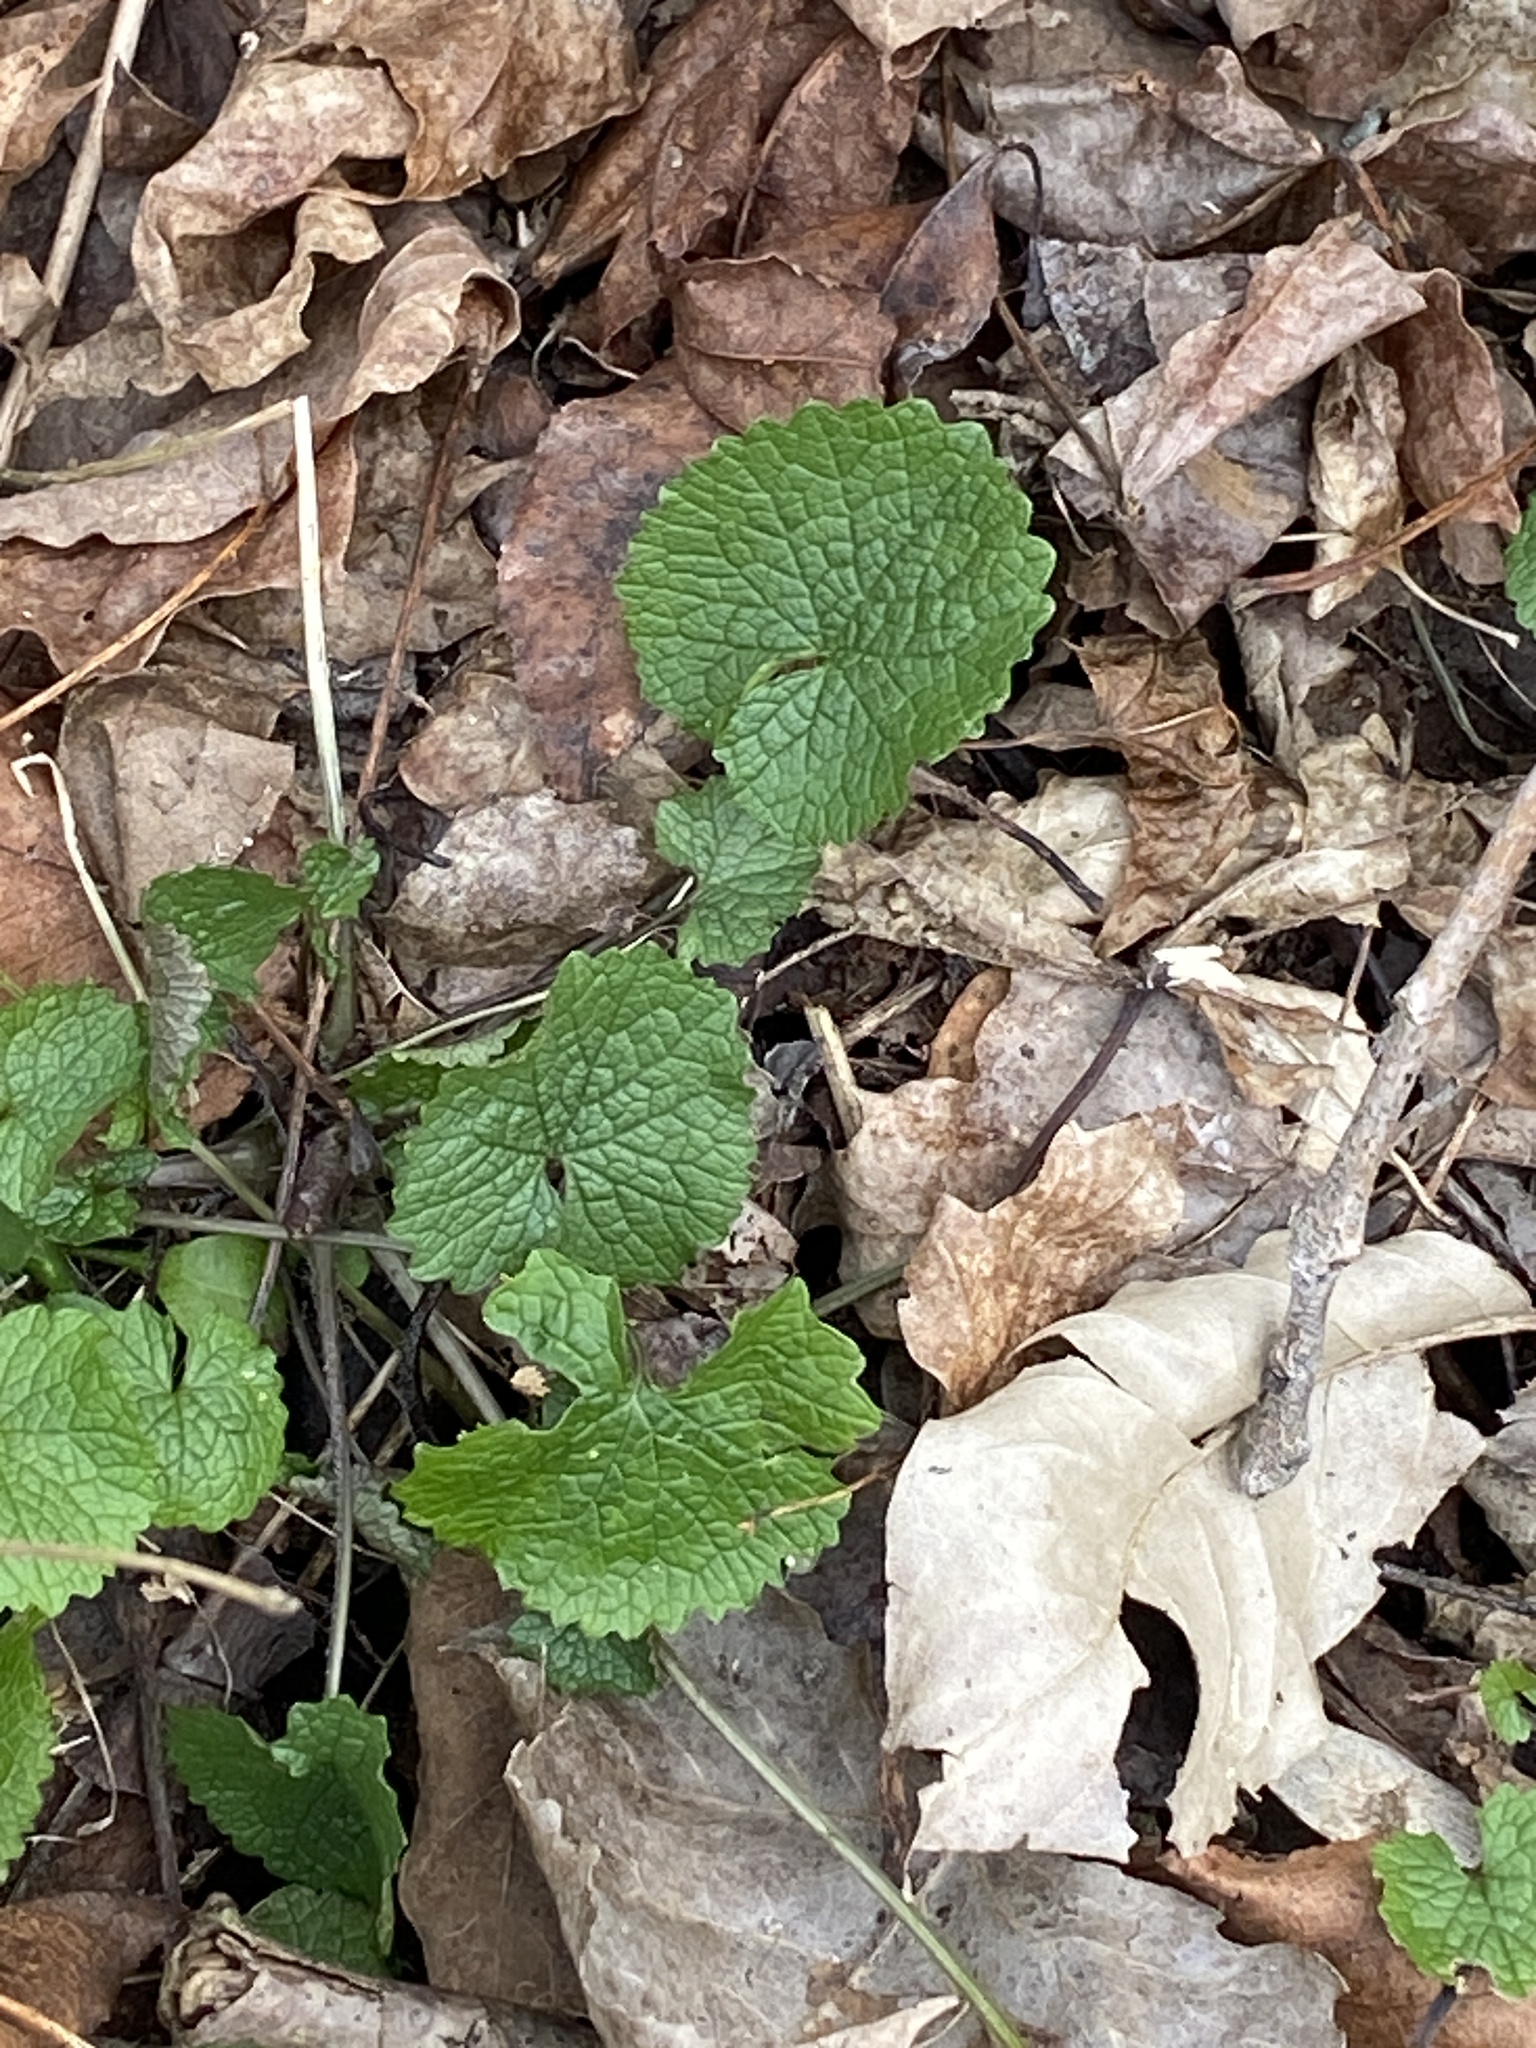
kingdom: Plantae
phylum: Tracheophyta
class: Magnoliopsida
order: Brassicales
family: Brassicaceae
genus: Alliaria
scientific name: Alliaria petiolata
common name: Garlic mustard
